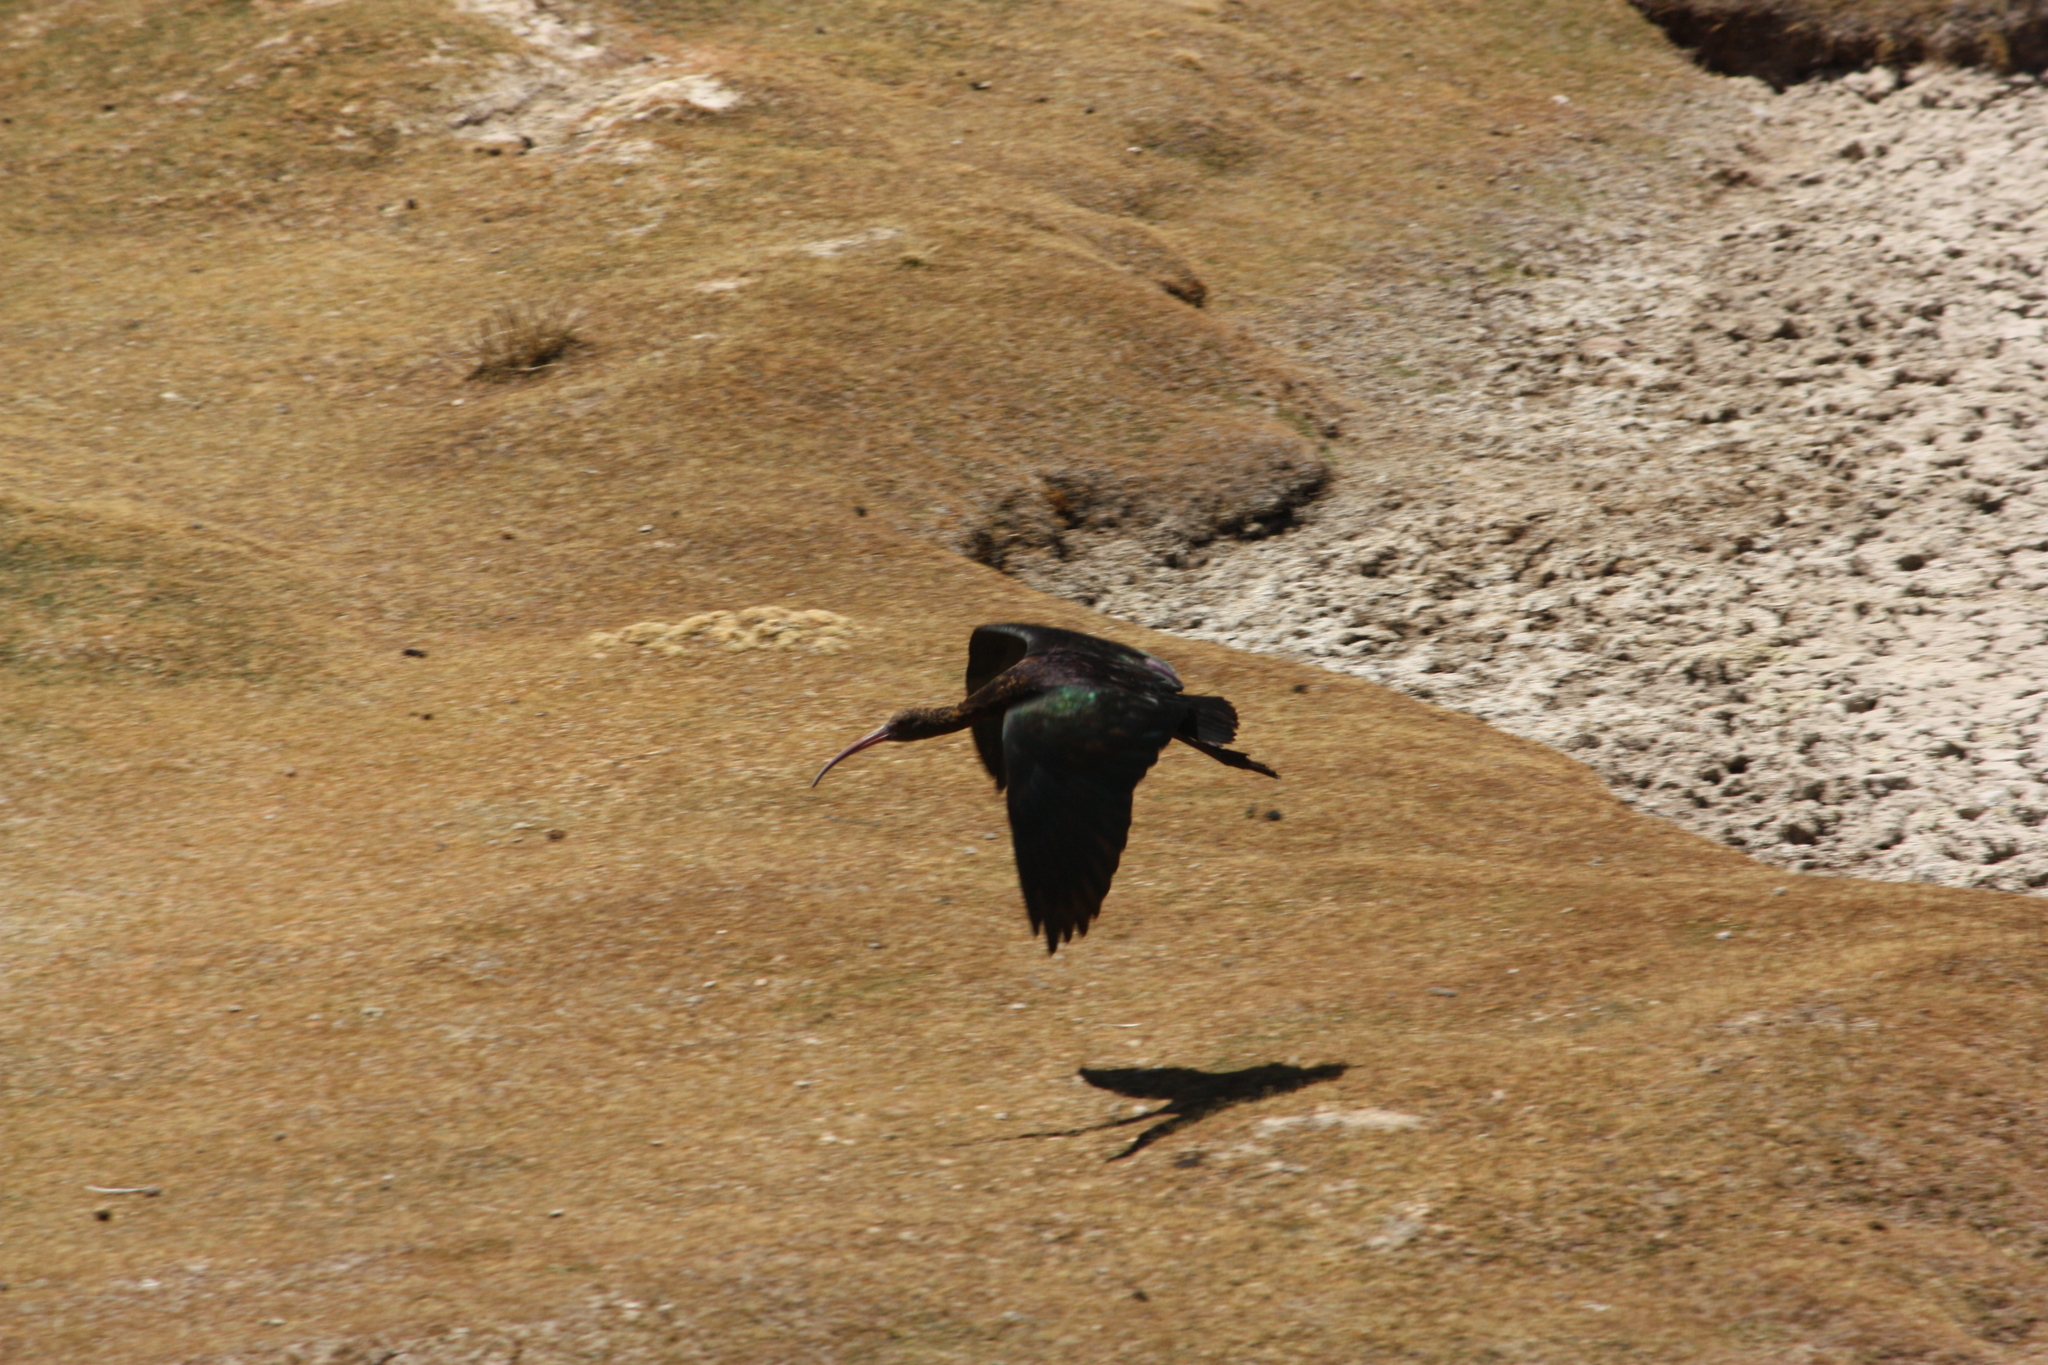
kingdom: Animalia
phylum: Chordata
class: Aves
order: Pelecaniformes
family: Threskiornithidae
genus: Plegadis
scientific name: Plegadis ridgwayi
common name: Puna ibis
